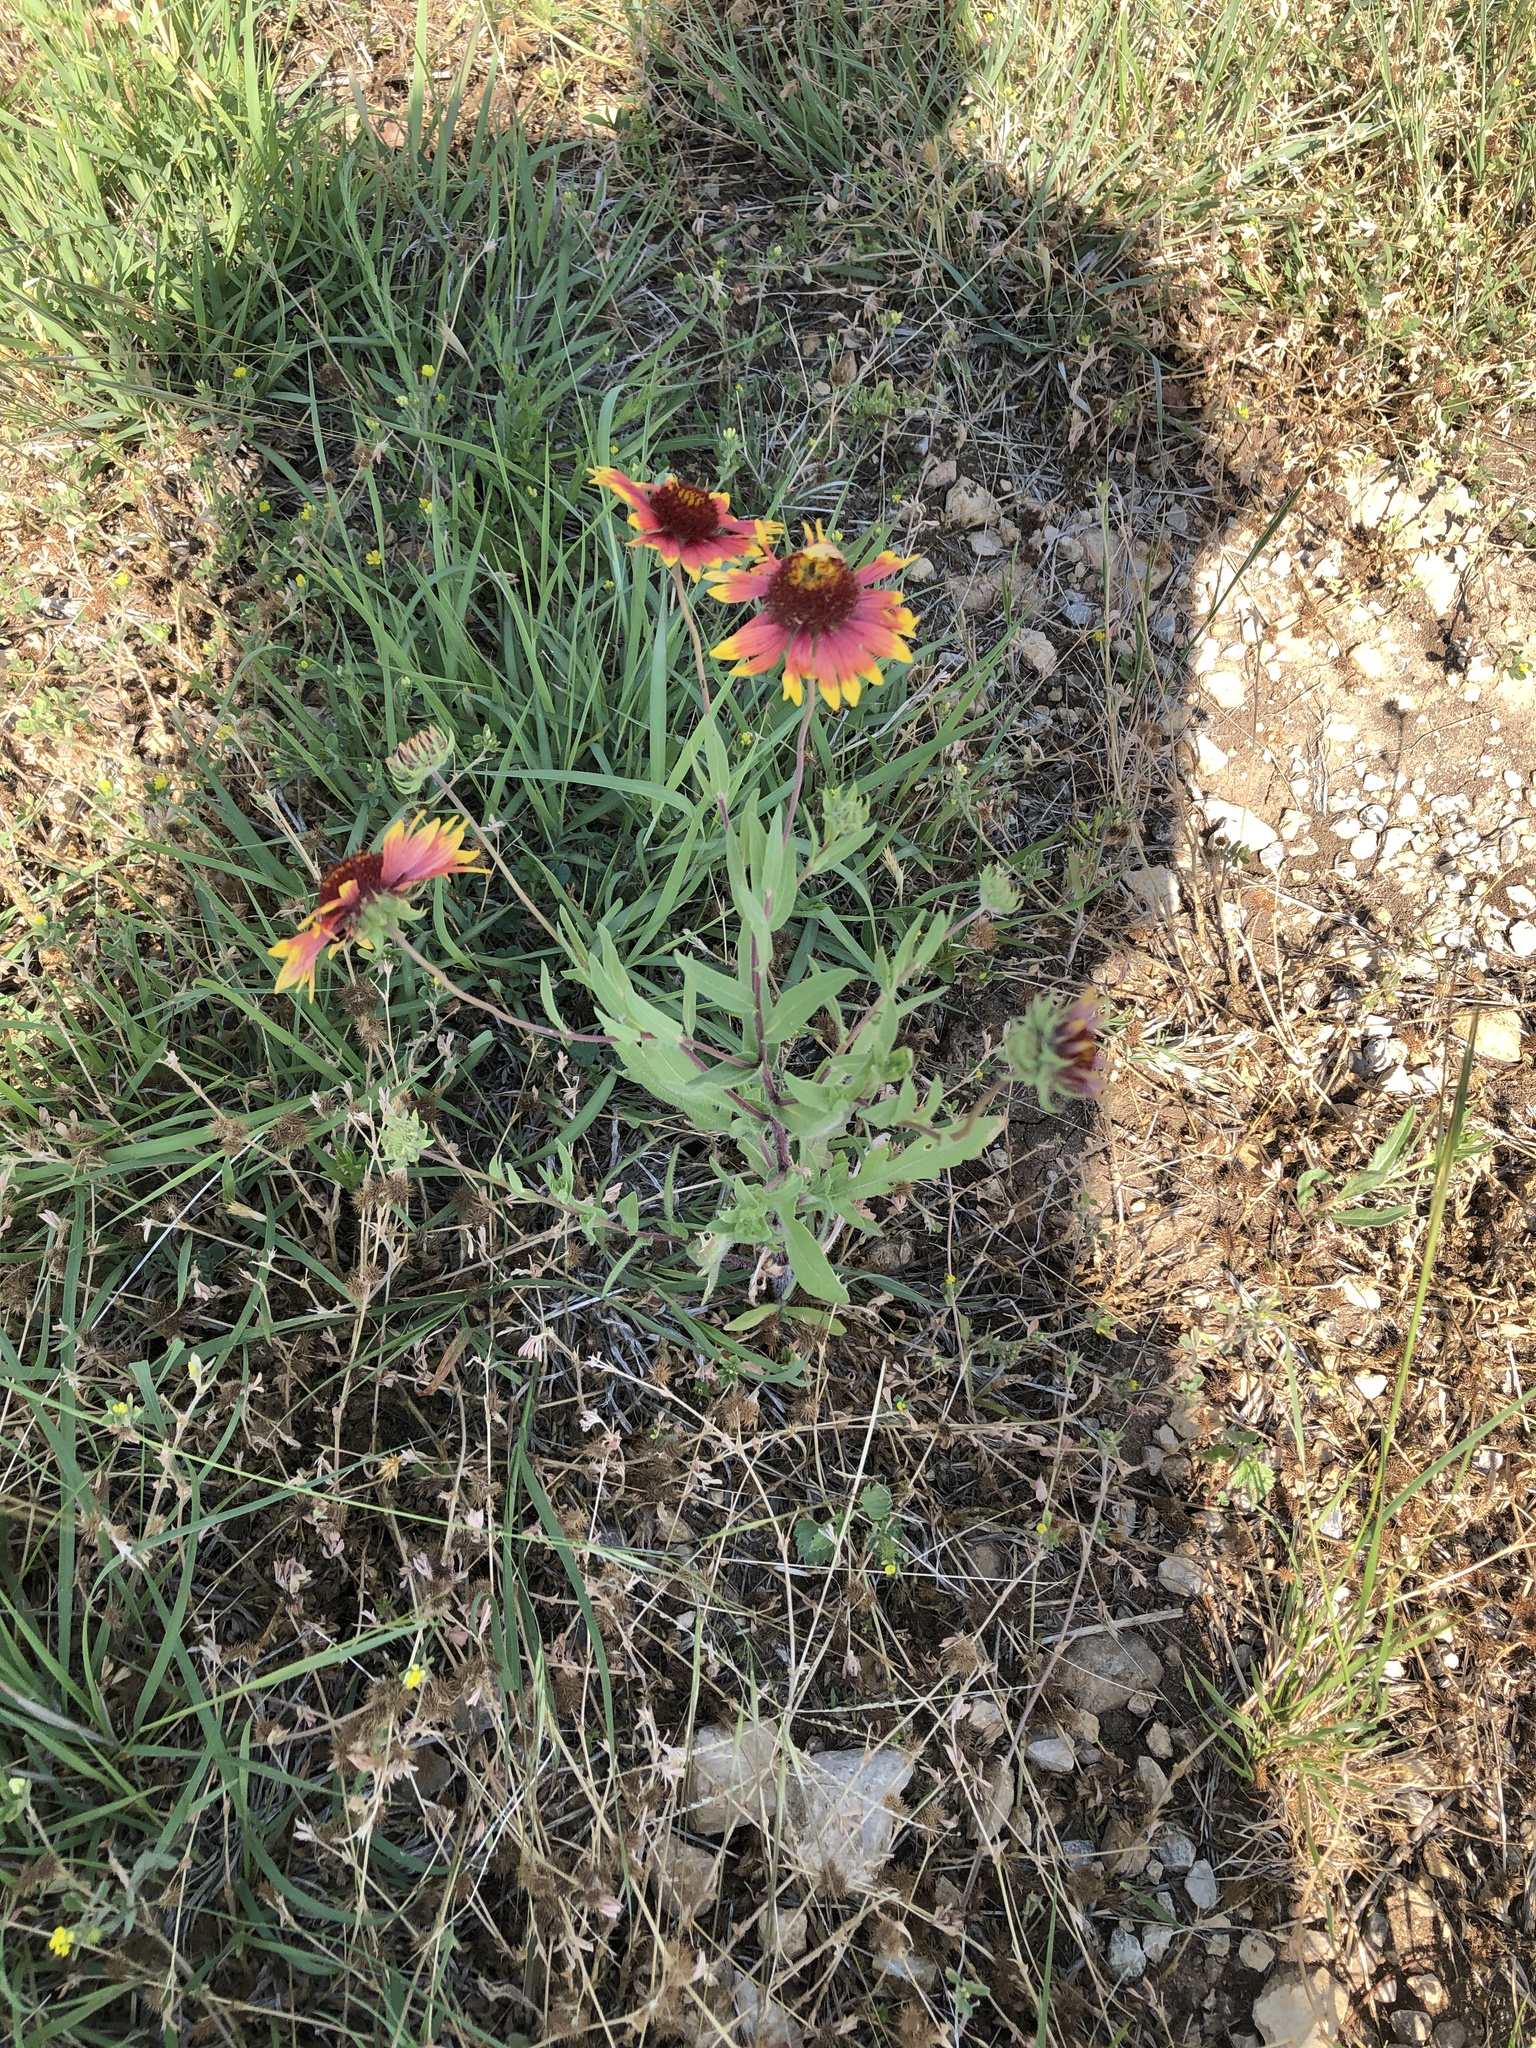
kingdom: Plantae
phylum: Tracheophyta
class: Magnoliopsida
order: Asterales
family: Asteraceae
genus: Gaillardia
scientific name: Gaillardia pulchella
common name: Firewheel
